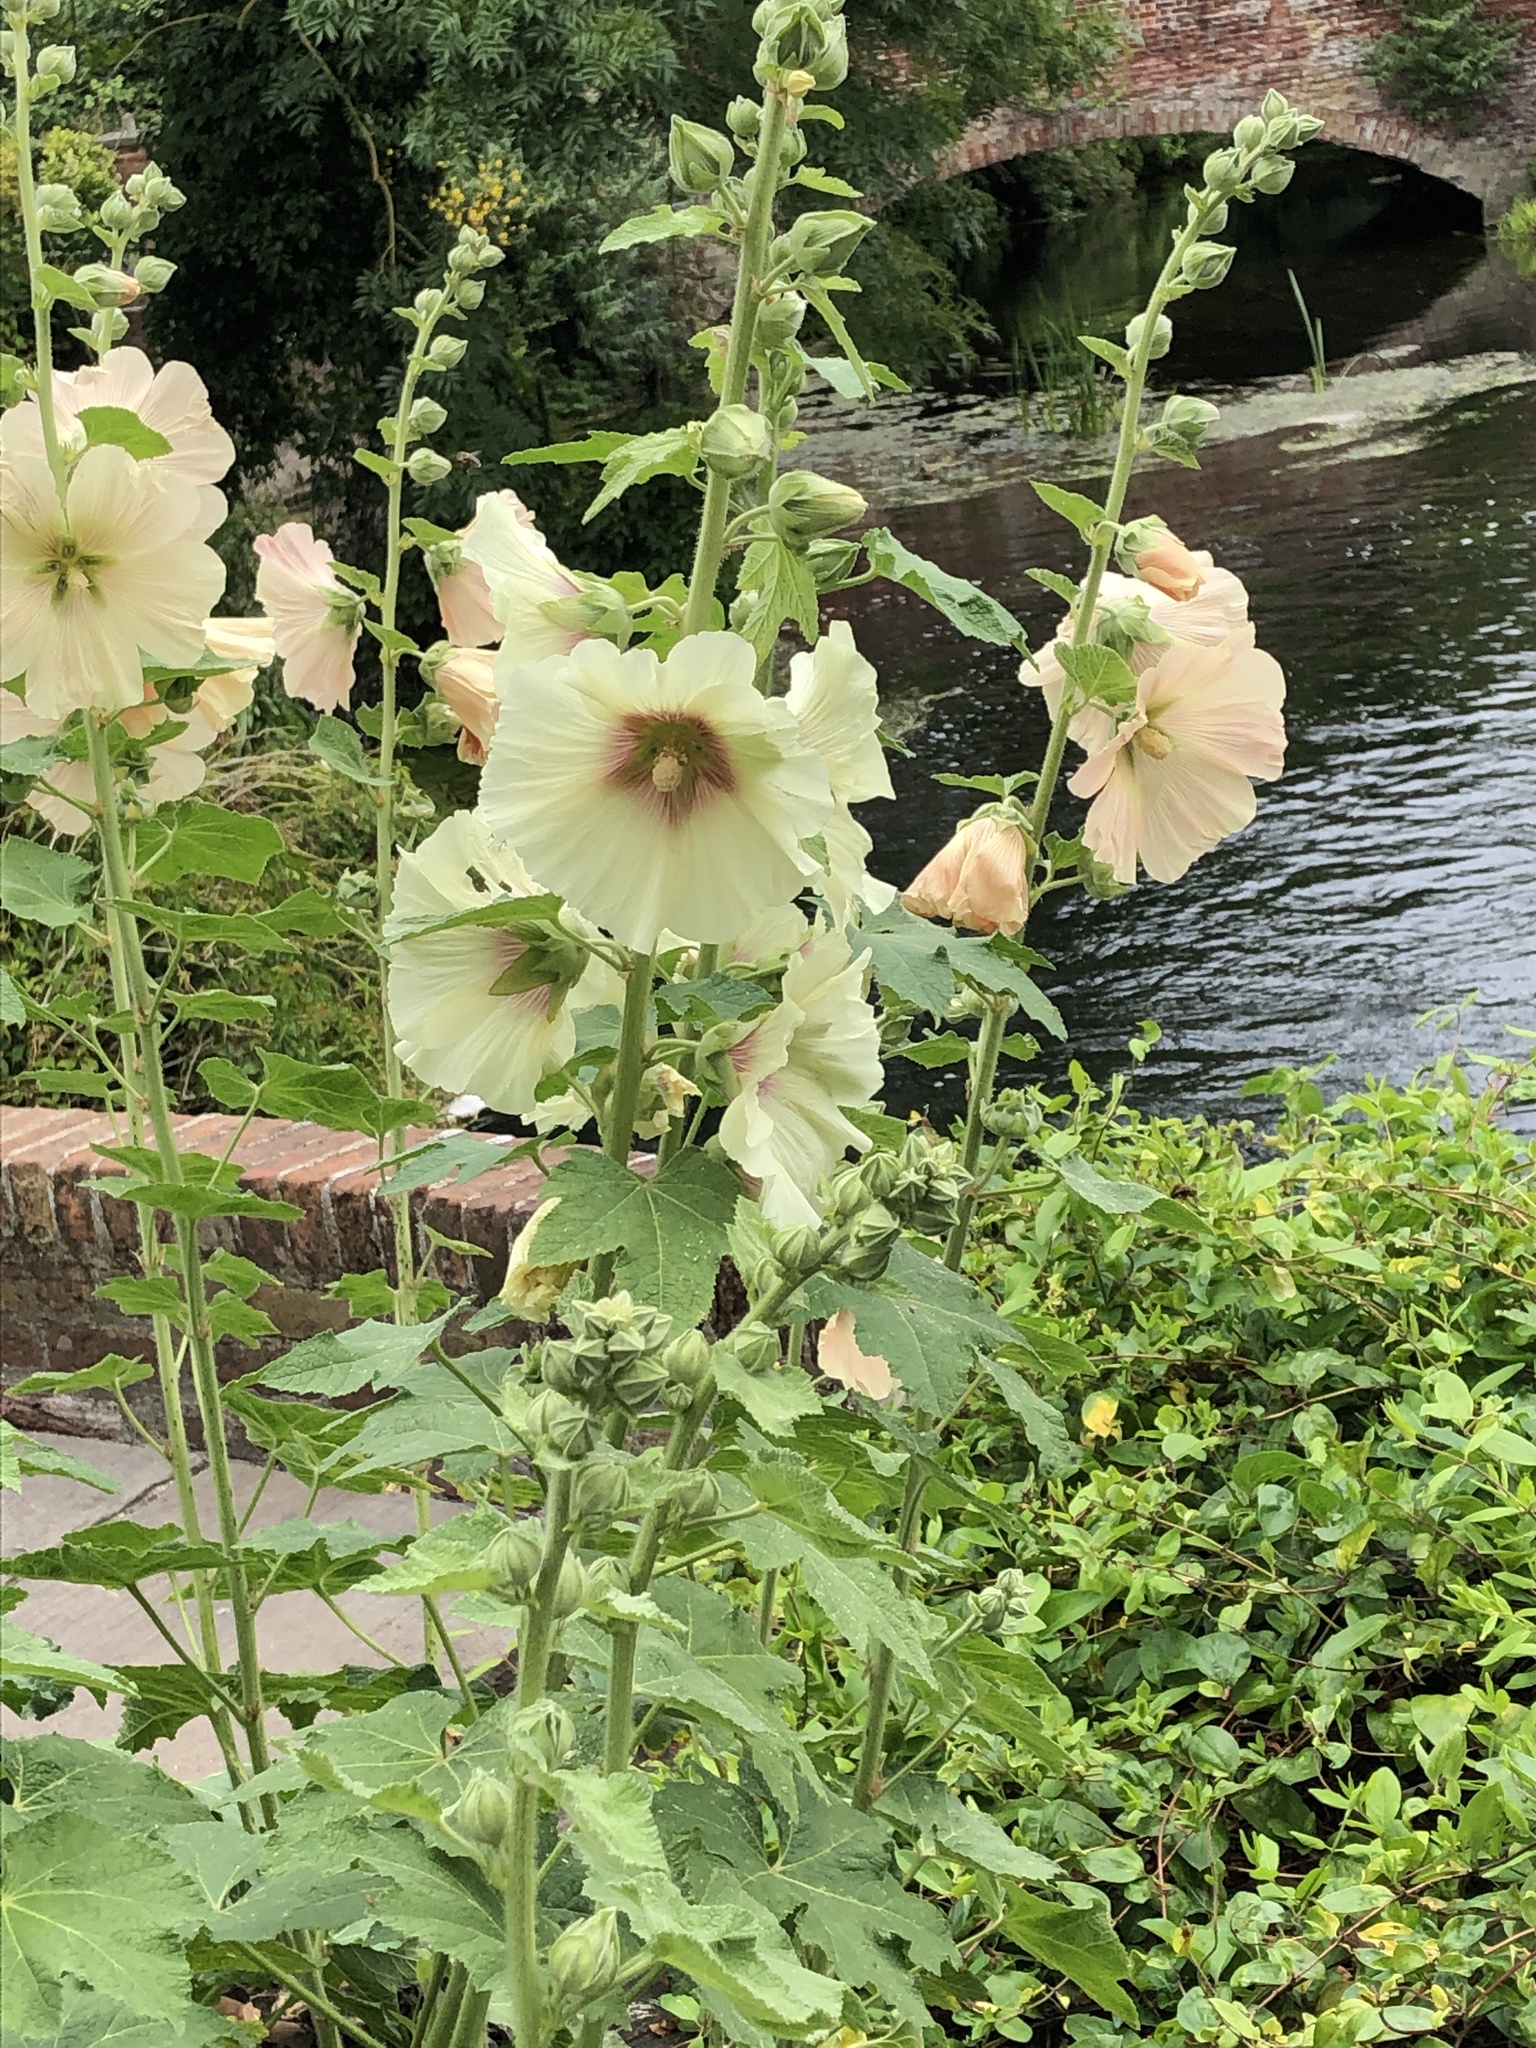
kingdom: Plantae
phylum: Tracheophyta
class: Magnoliopsida
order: Malvales
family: Malvaceae
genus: Alcea
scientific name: Alcea rosea
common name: Hollyhock
